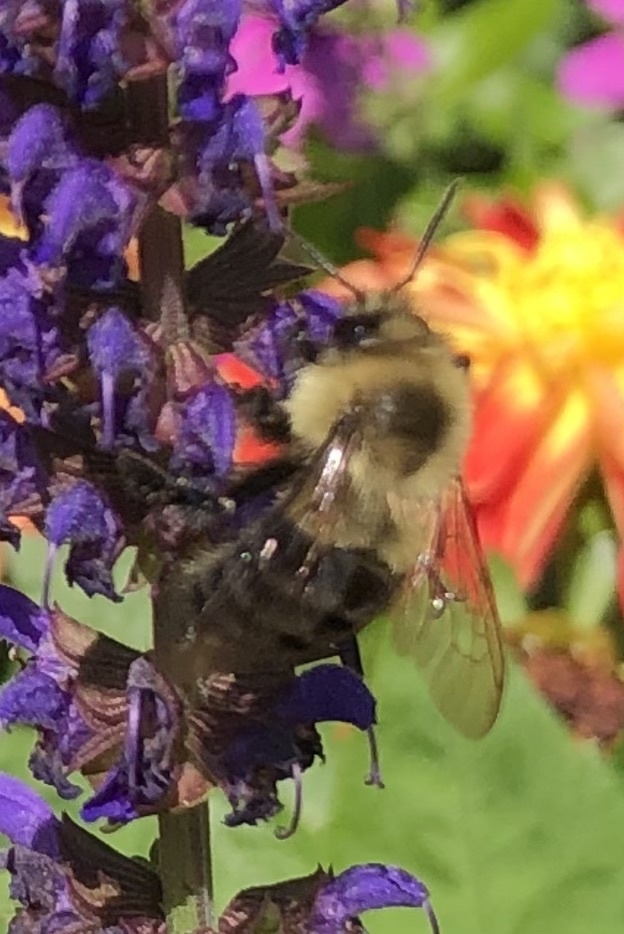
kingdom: Animalia
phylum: Arthropoda
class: Insecta
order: Hymenoptera
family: Apidae
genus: Bombus
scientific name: Bombus impatiens
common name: Common eastern bumble bee
